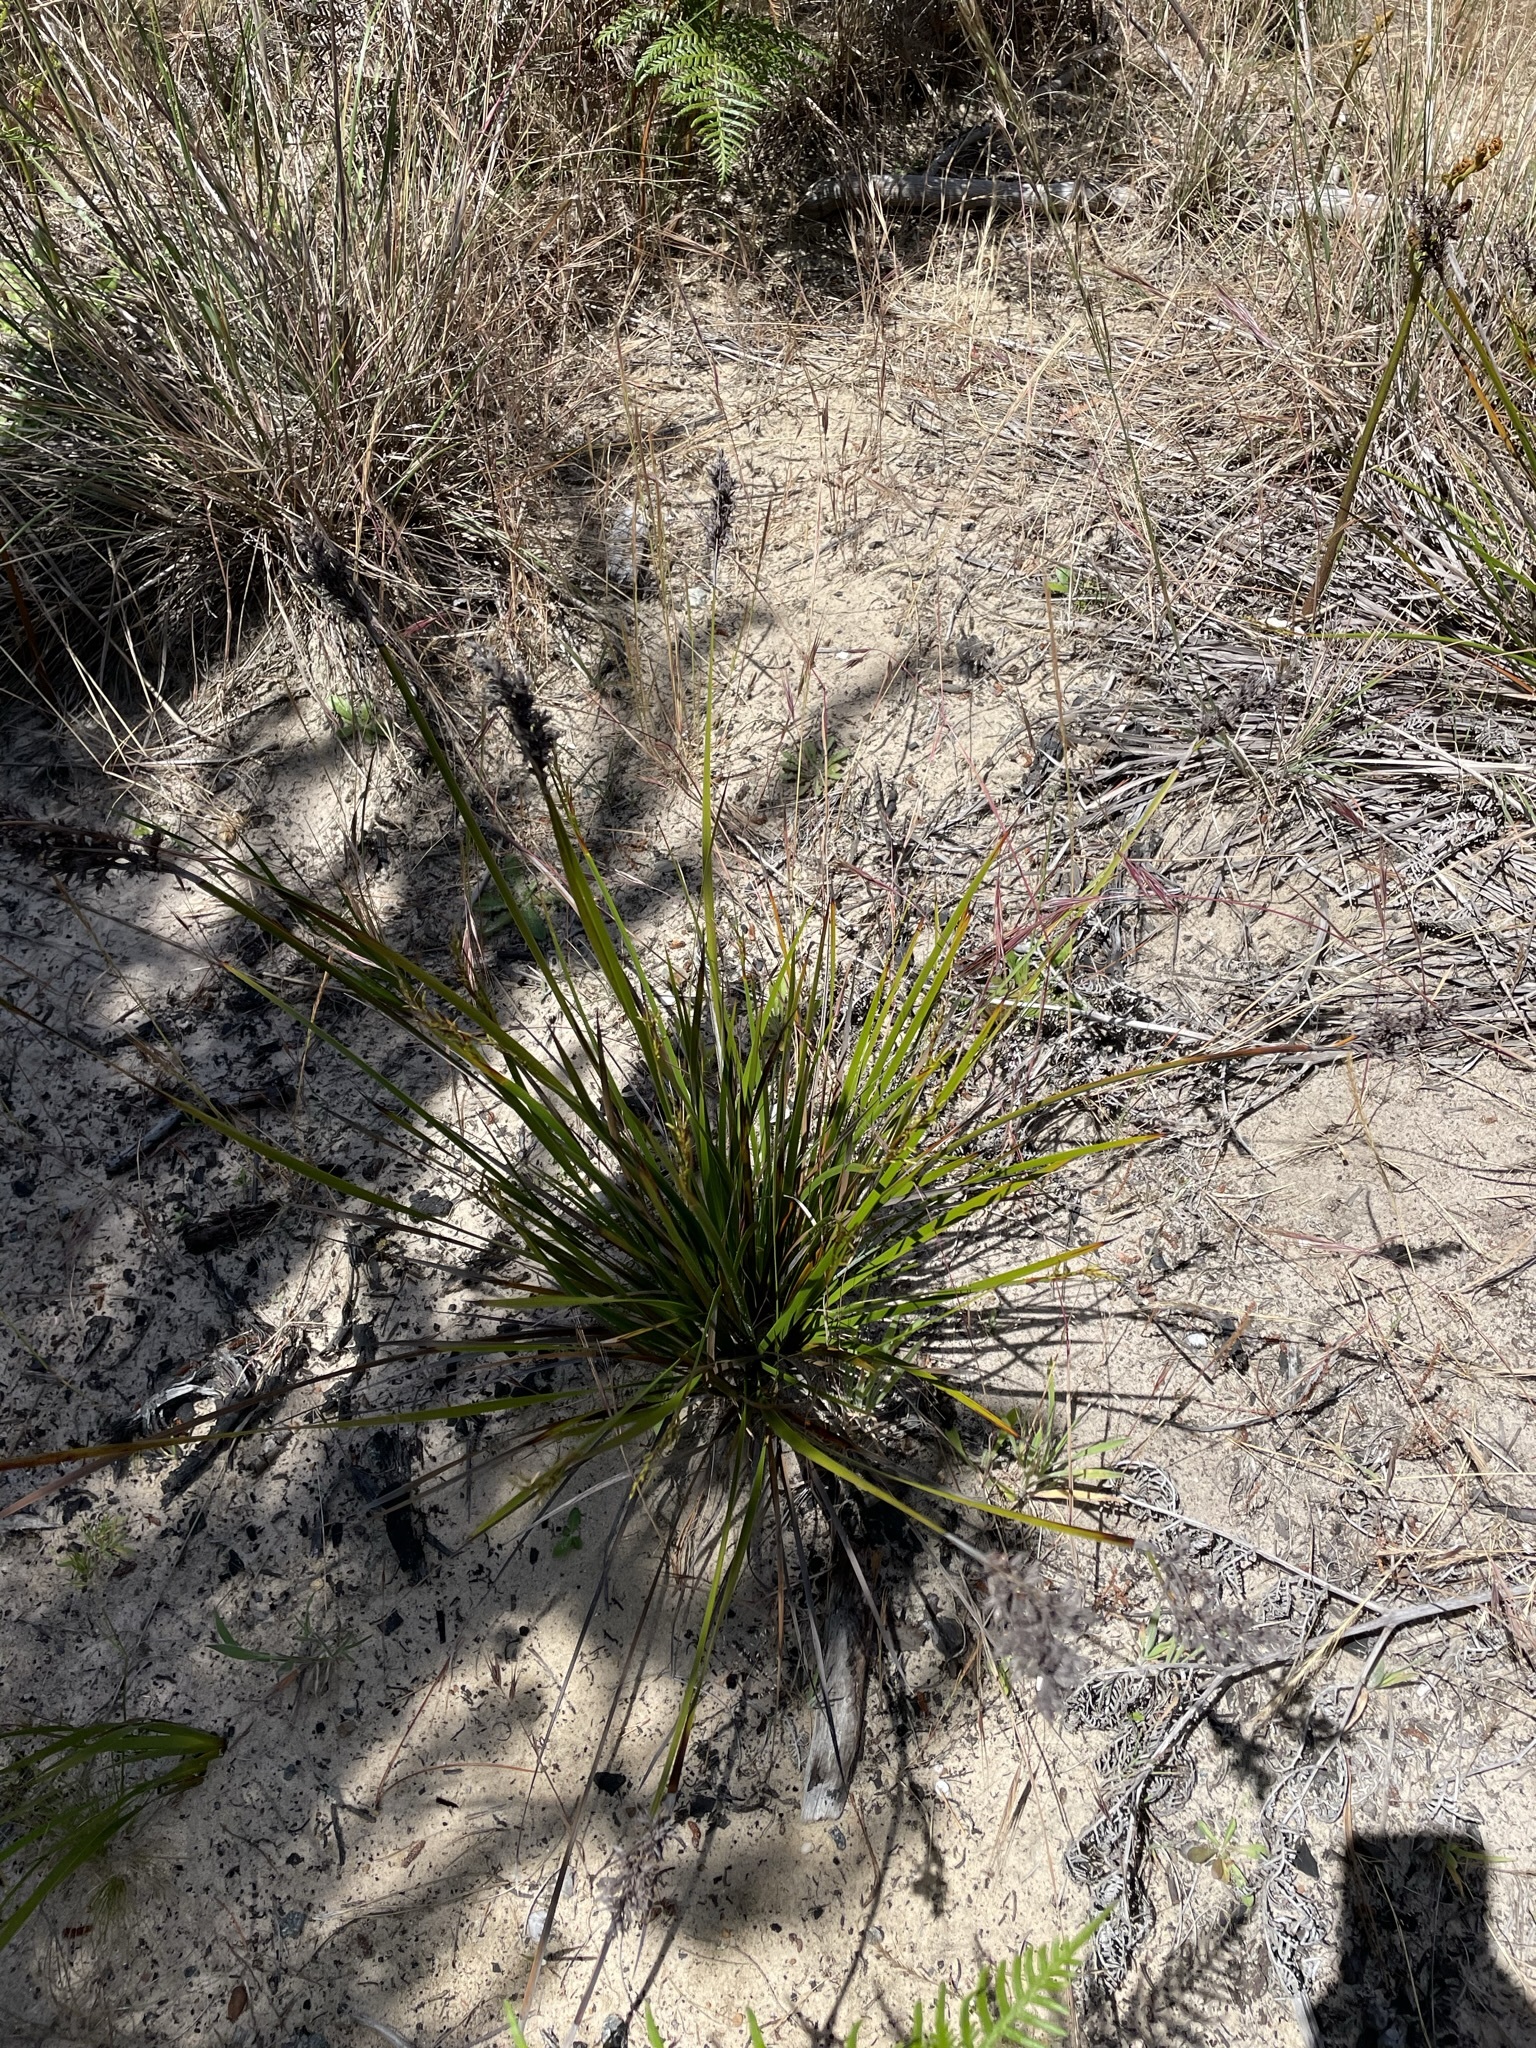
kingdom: Plantae
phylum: Tracheophyta
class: Liliopsida
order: Poales
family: Cyperaceae
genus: Lepidosperma
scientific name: Lepidosperma concavum
